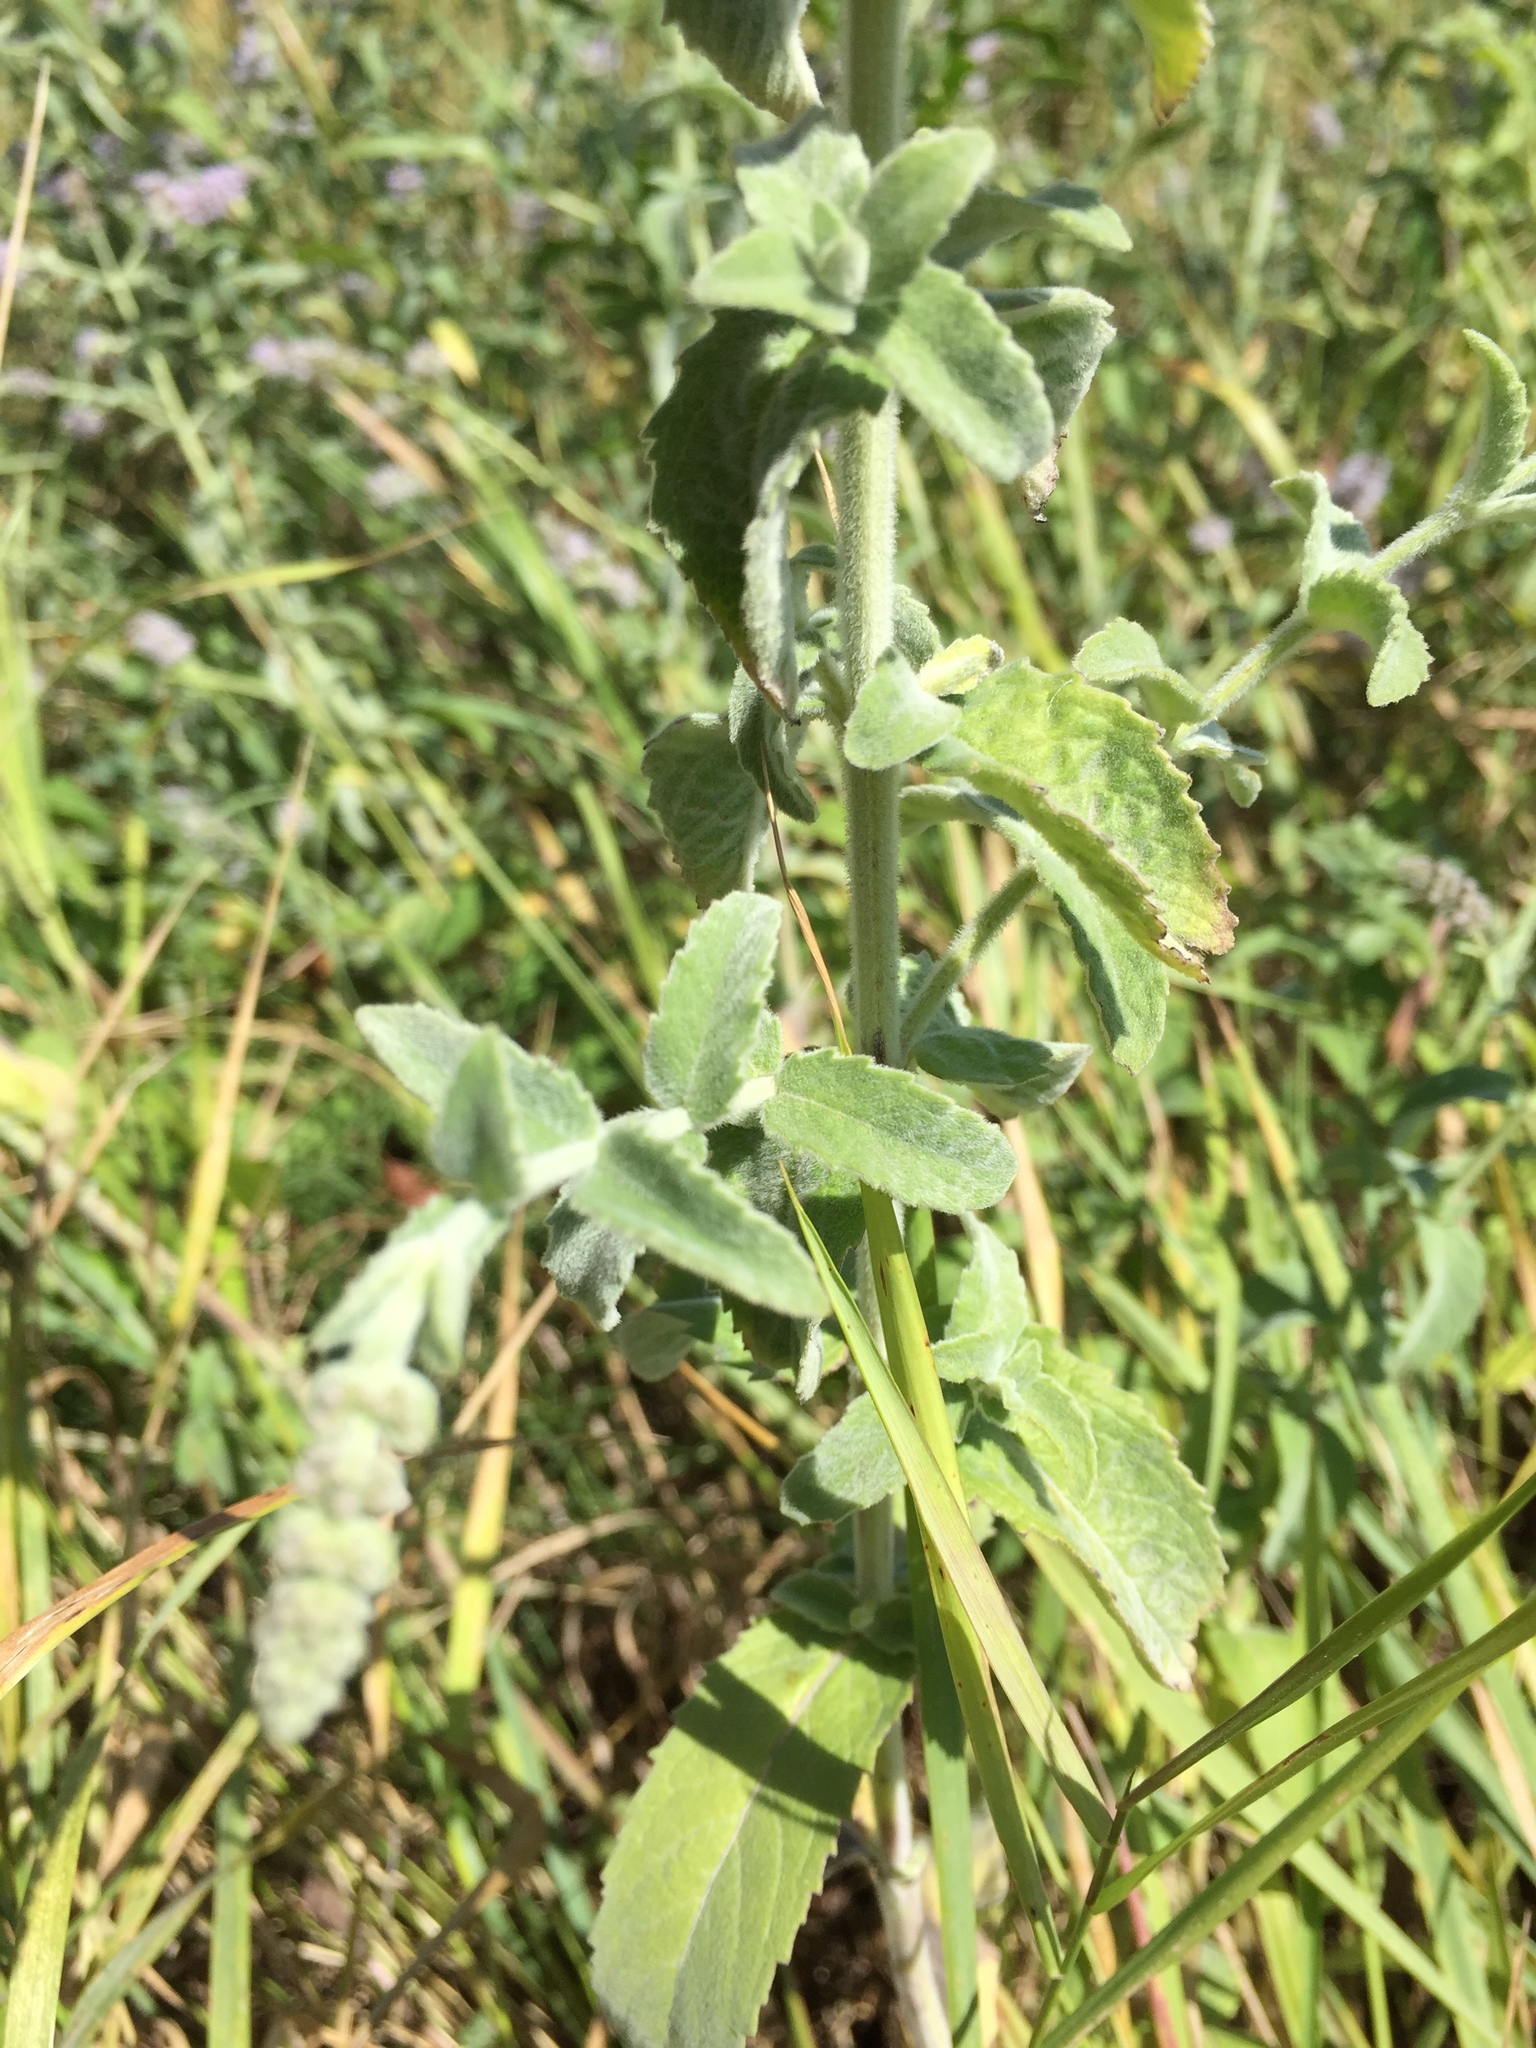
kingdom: Plantae
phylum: Tracheophyta
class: Magnoliopsida
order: Lamiales
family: Lamiaceae
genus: Mentha
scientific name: Mentha longifolia
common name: Horse mint
